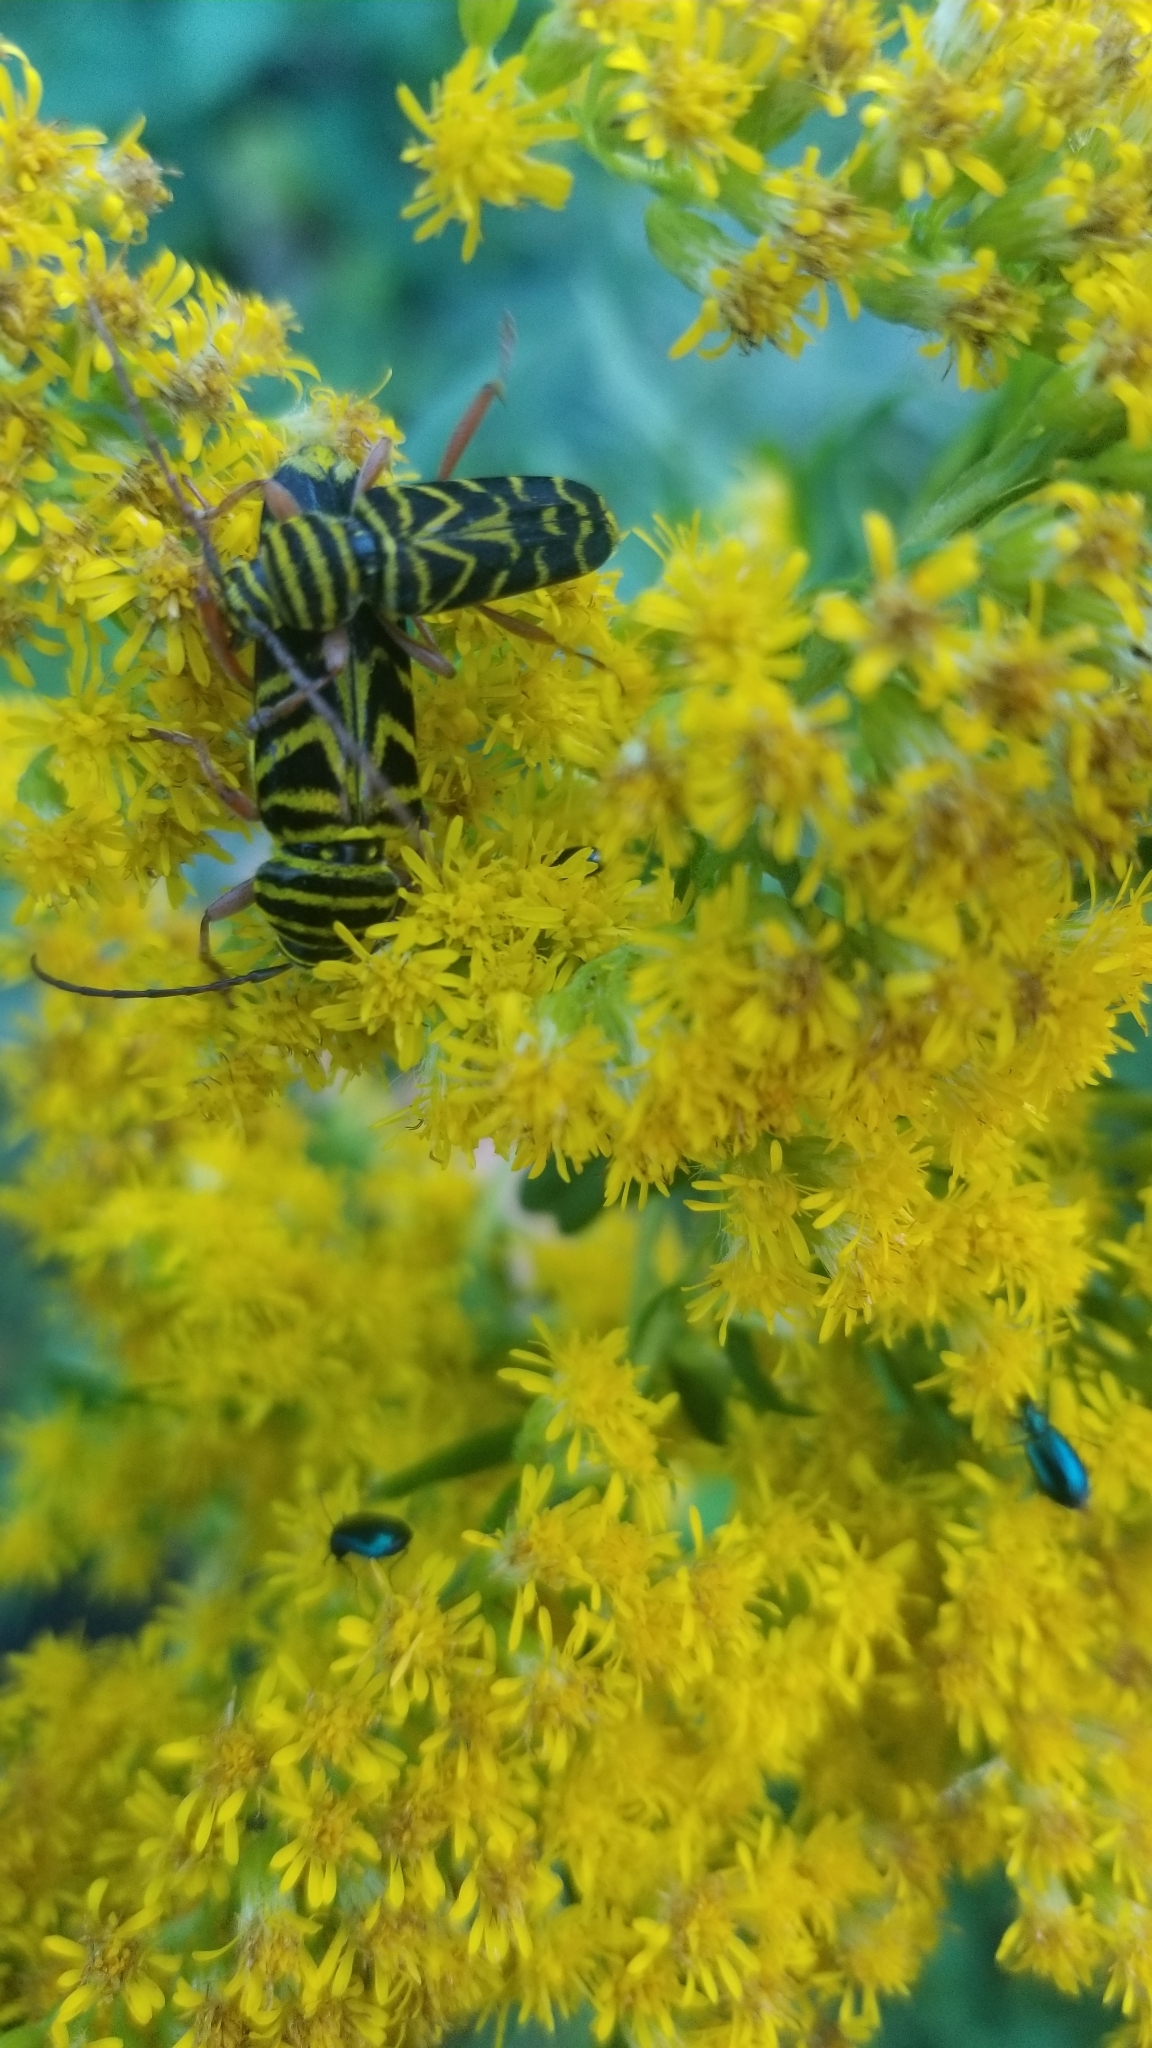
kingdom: Animalia
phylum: Arthropoda
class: Insecta
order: Coleoptera
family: Cerambycidae
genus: Megacyllene
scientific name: Megacyllene robiniae
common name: Locust borer
